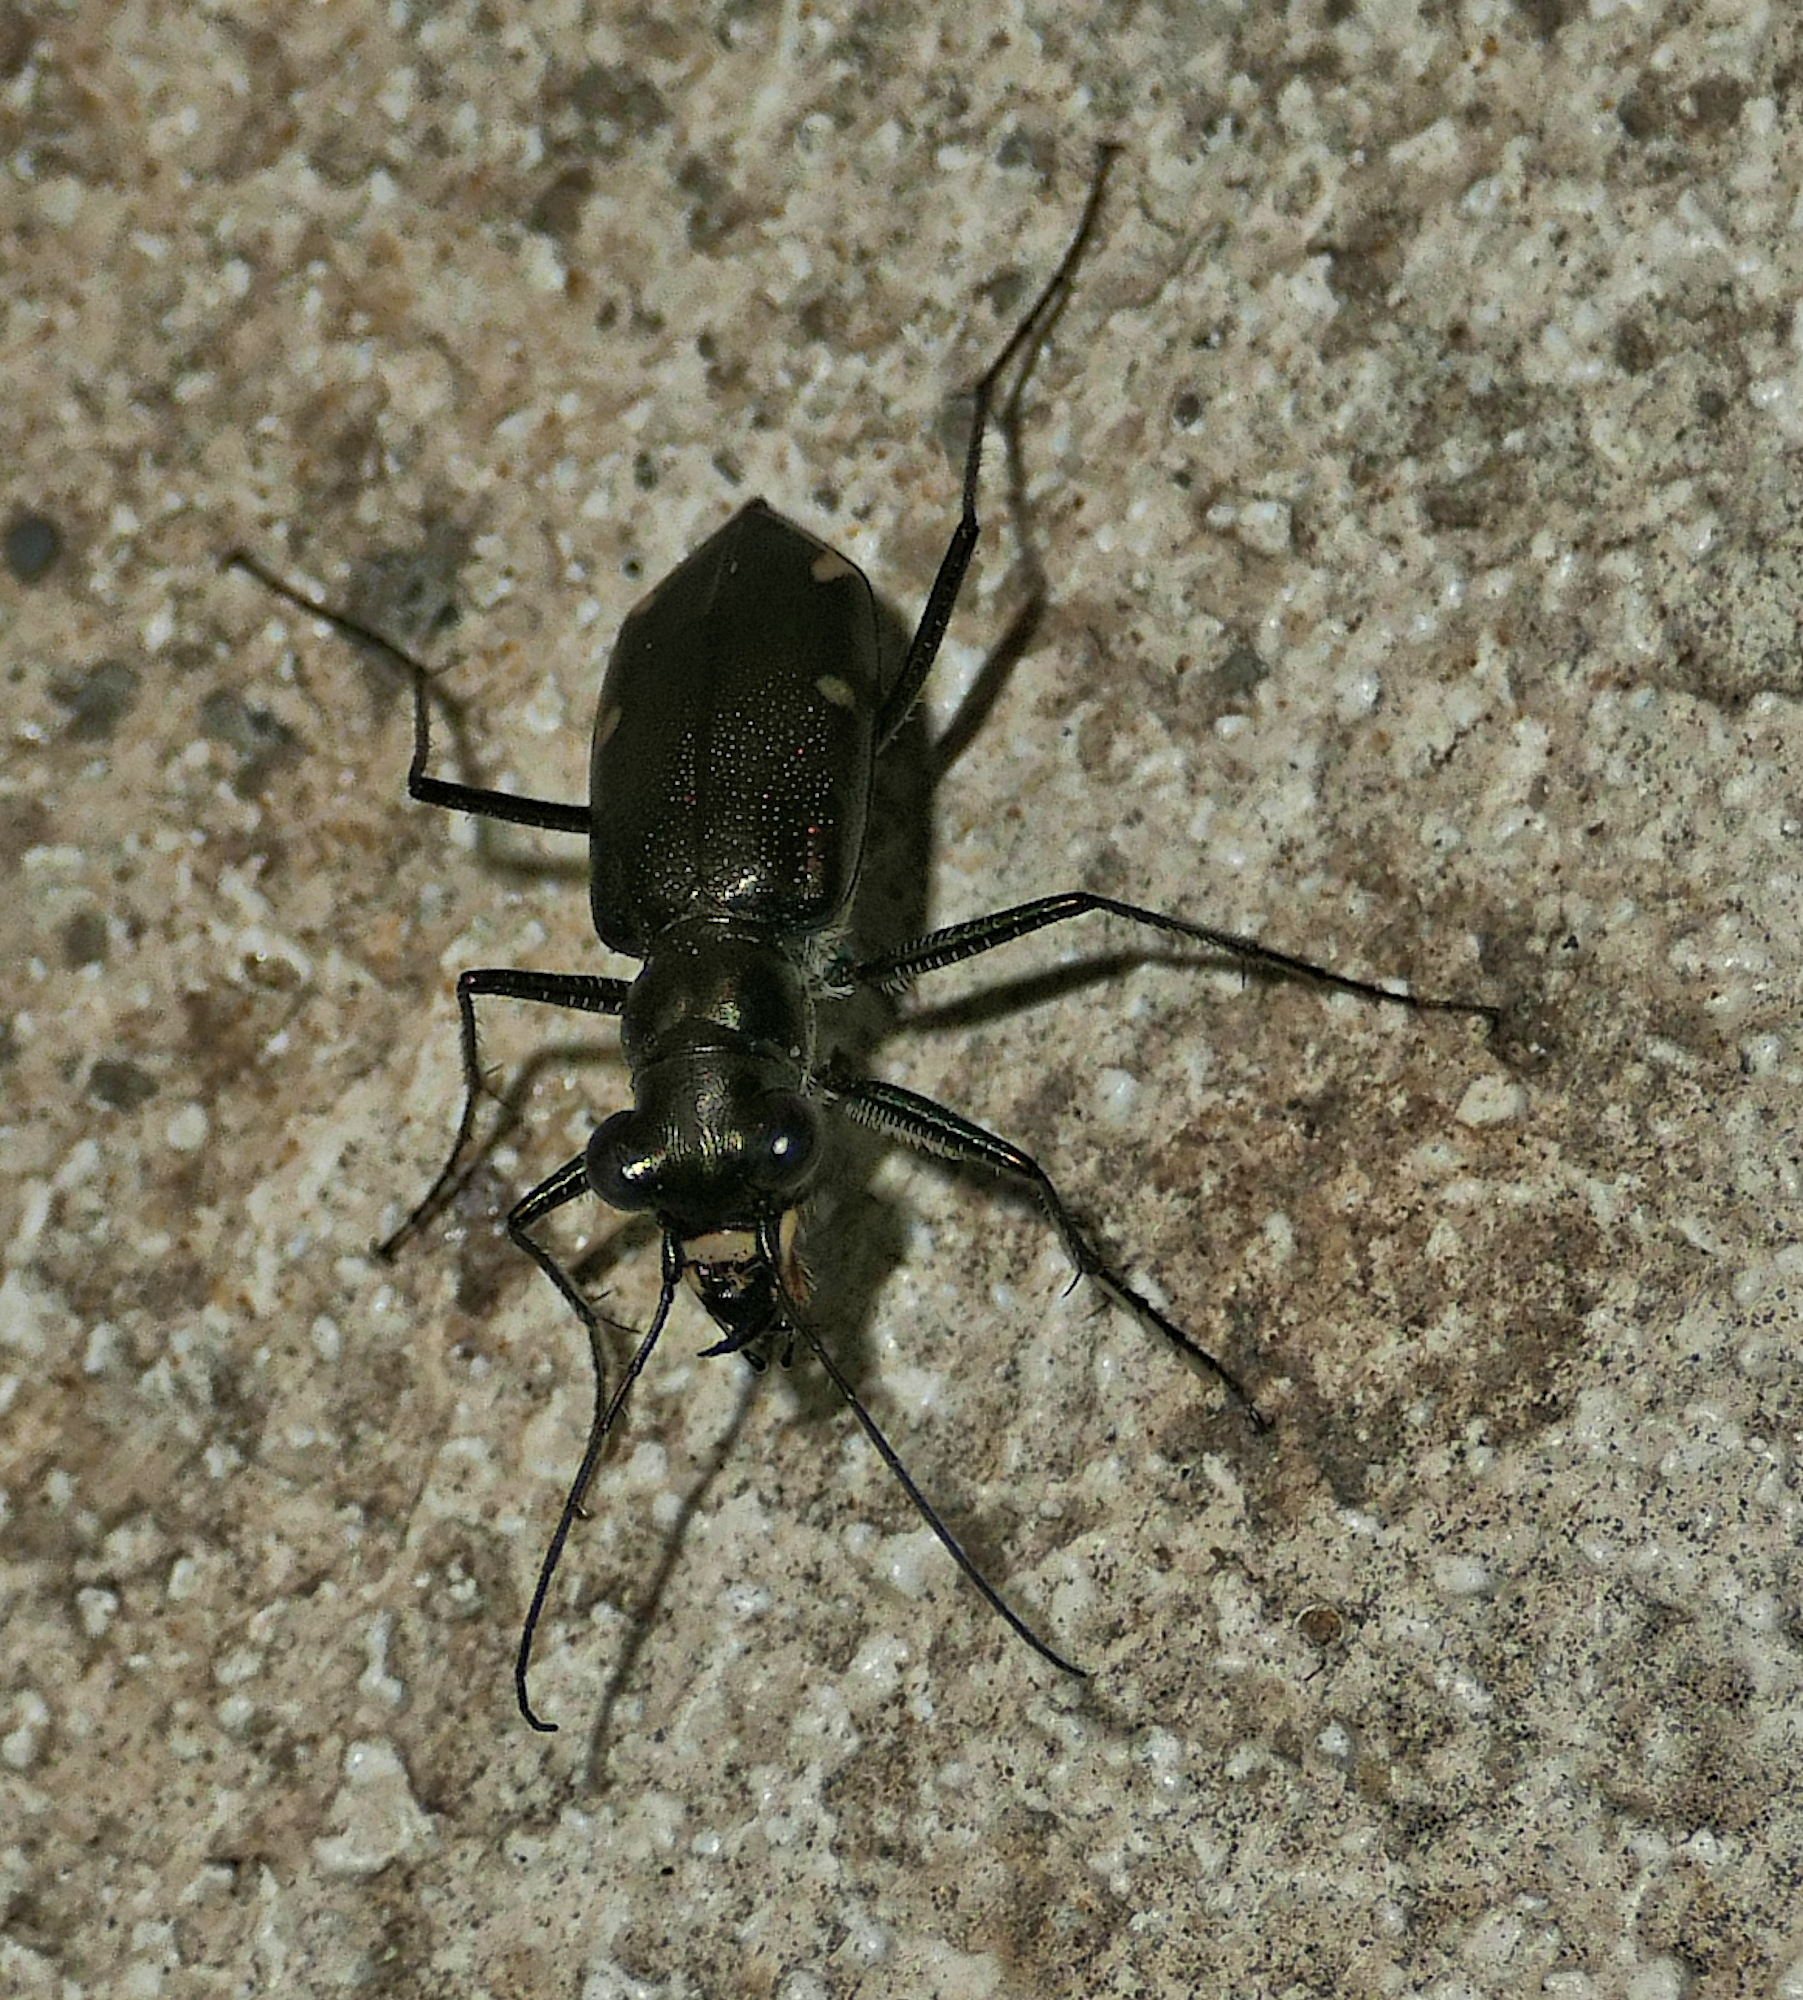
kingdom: Animalia
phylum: Arthropoda
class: Insecta
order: Coleoptera
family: Carabidae
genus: Eunota
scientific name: Eunota severa
